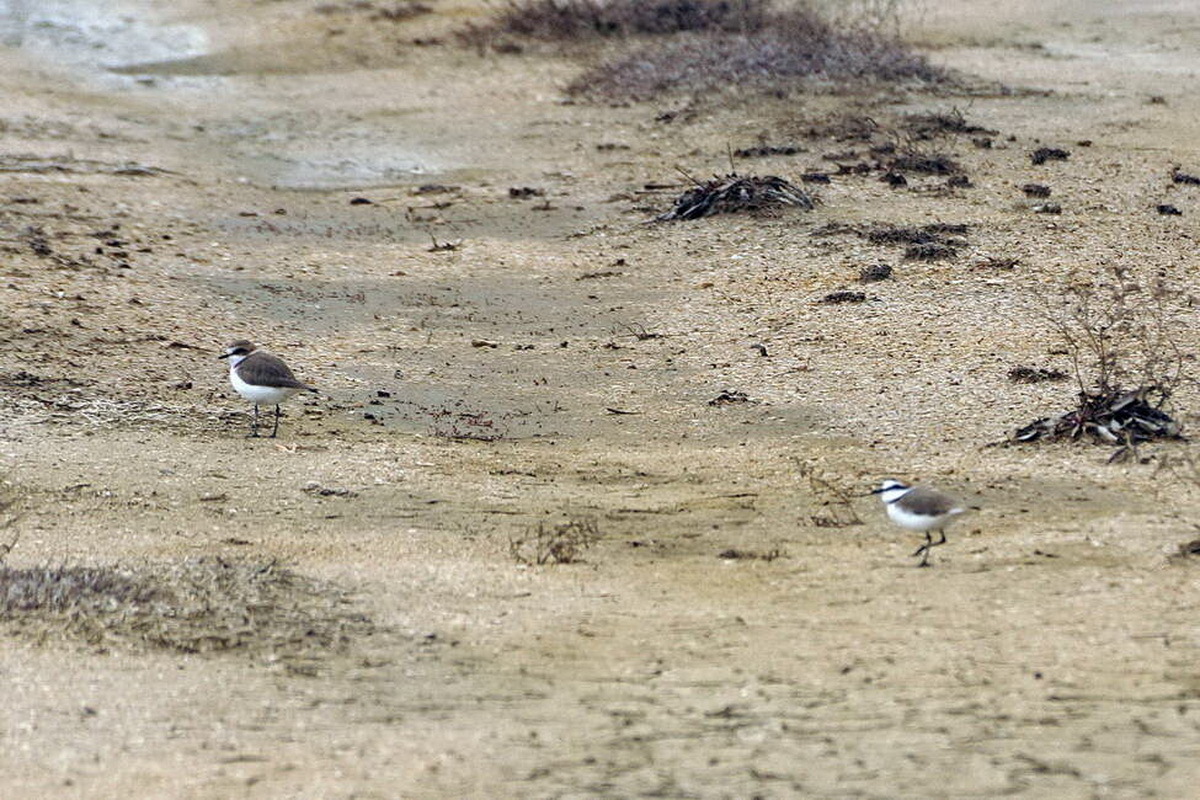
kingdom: Animalia
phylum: Chordata
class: Aves
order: Charadriiformes
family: Charadriidae
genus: Charadrius
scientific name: Charadrius alexandrinus
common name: Kentish plover
